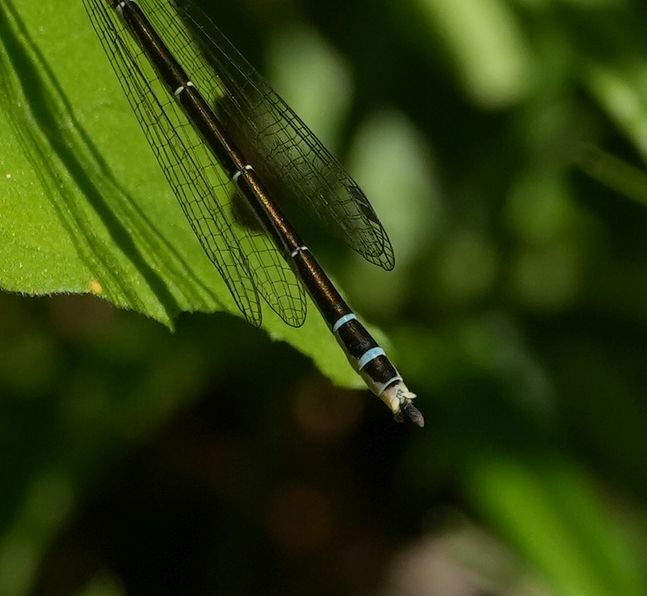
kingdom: Animalia
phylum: Arthropoda
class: Insecta
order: Odonata
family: Coenagrionidae
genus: Coenagrion
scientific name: Coenagrion resolutum
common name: Taiga bluet
